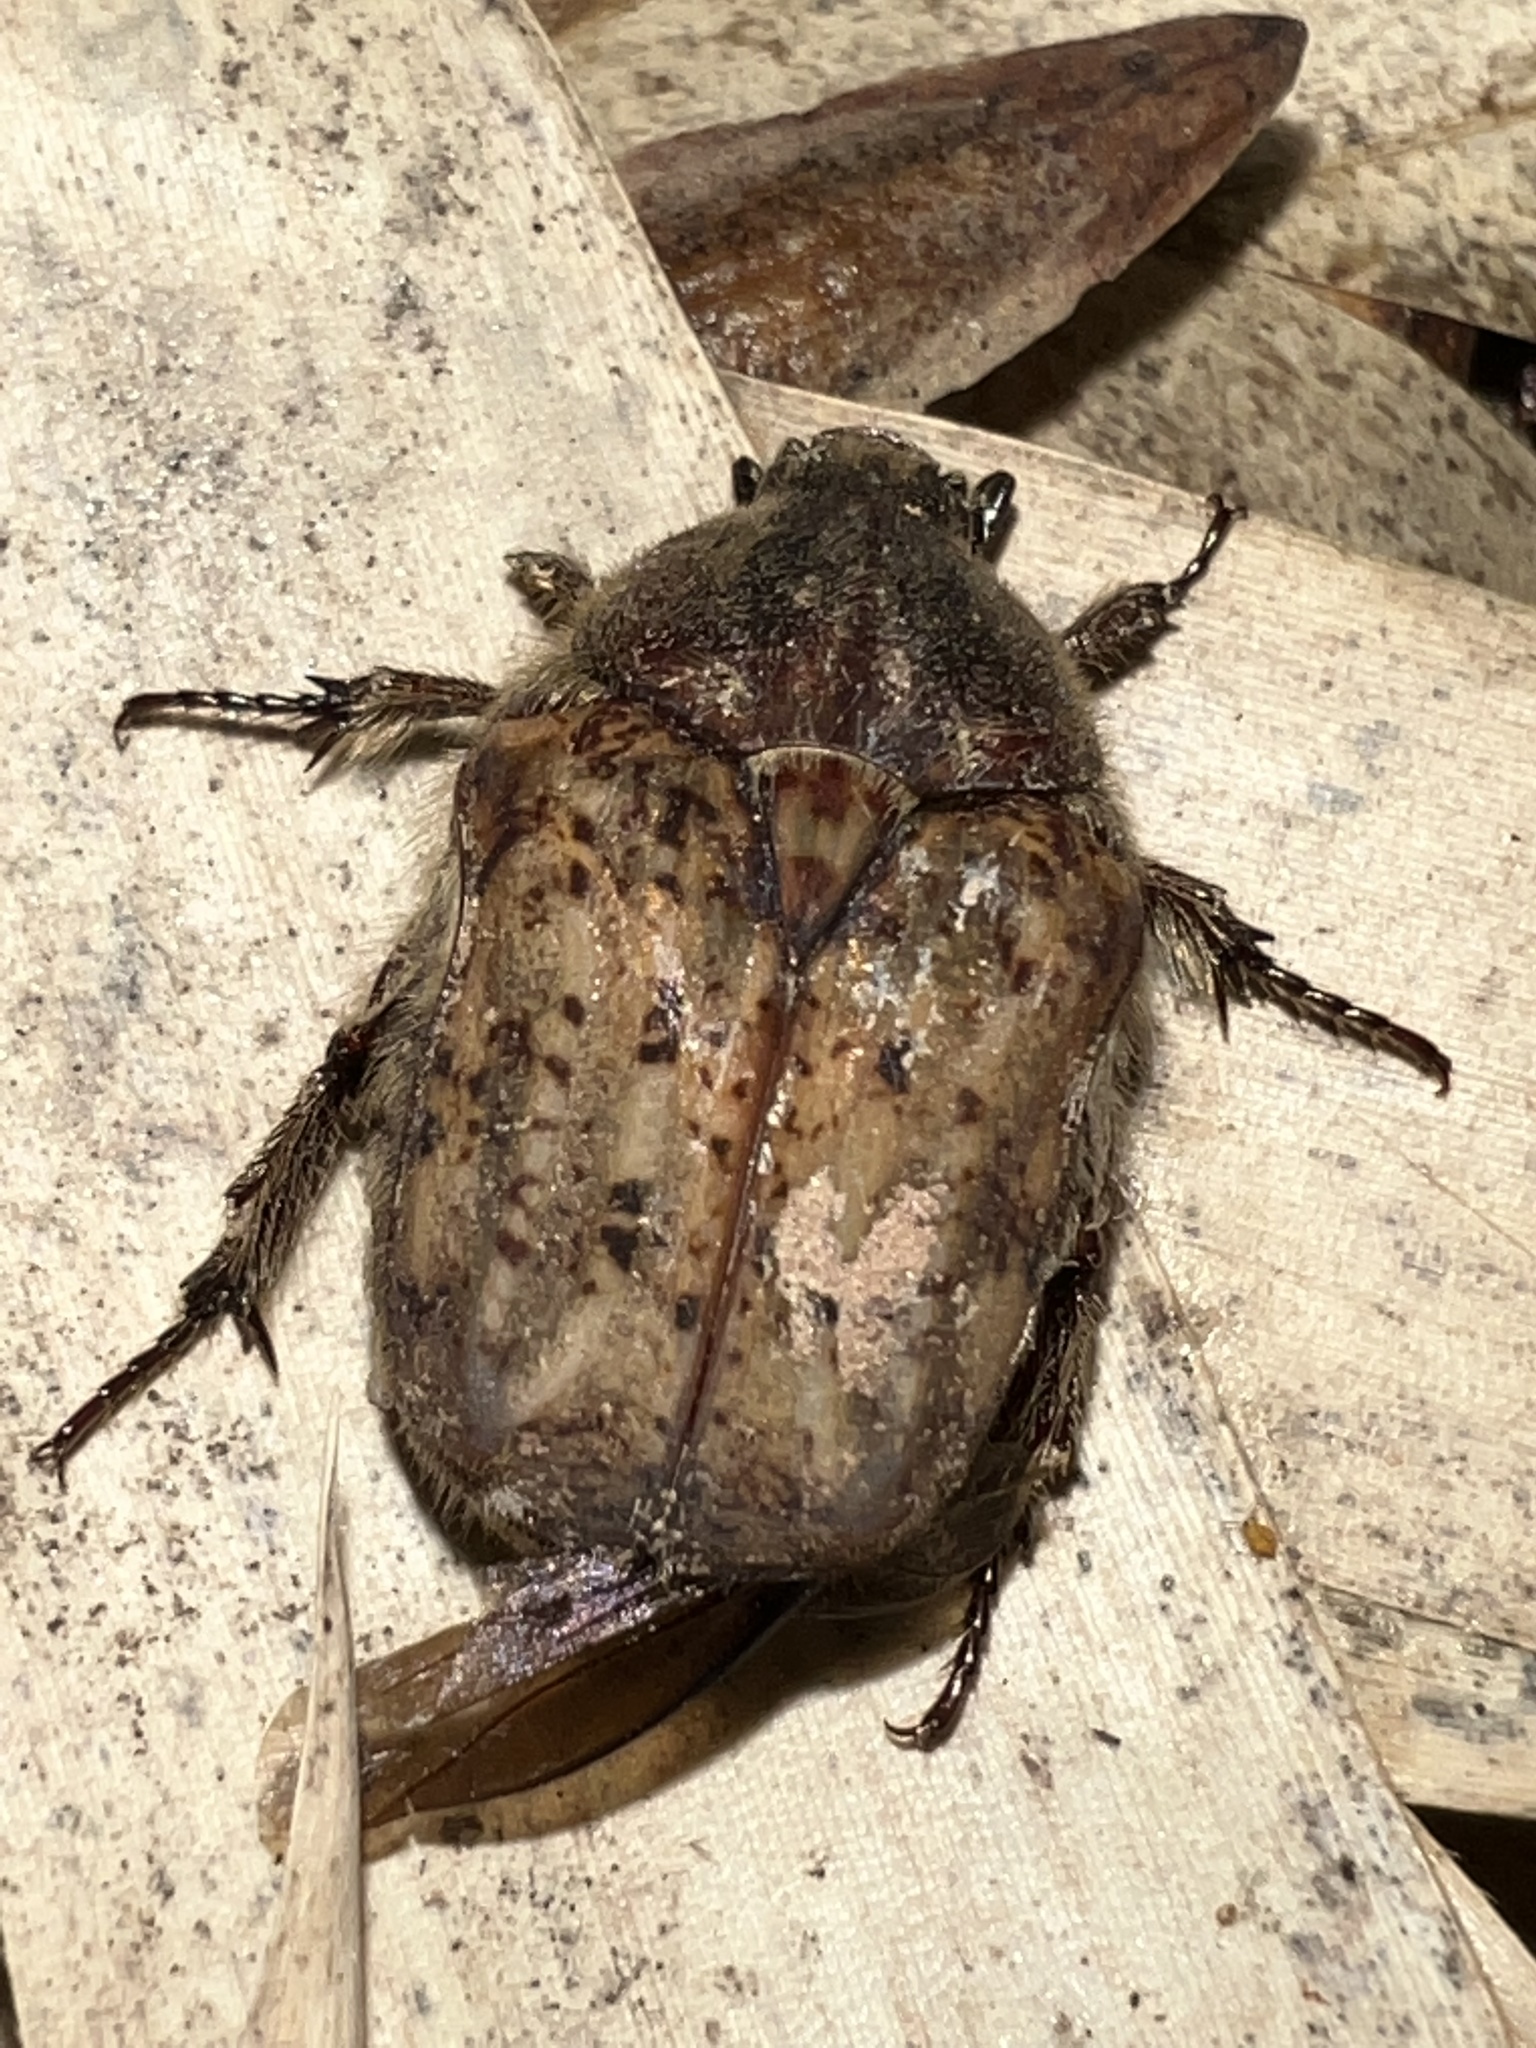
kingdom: Animalia
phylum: Arthropoda
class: Insecta
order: Coleoptera
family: Scarabaeidae
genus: Euphoria
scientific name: Euphoria inda
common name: Bumble flower beetle
